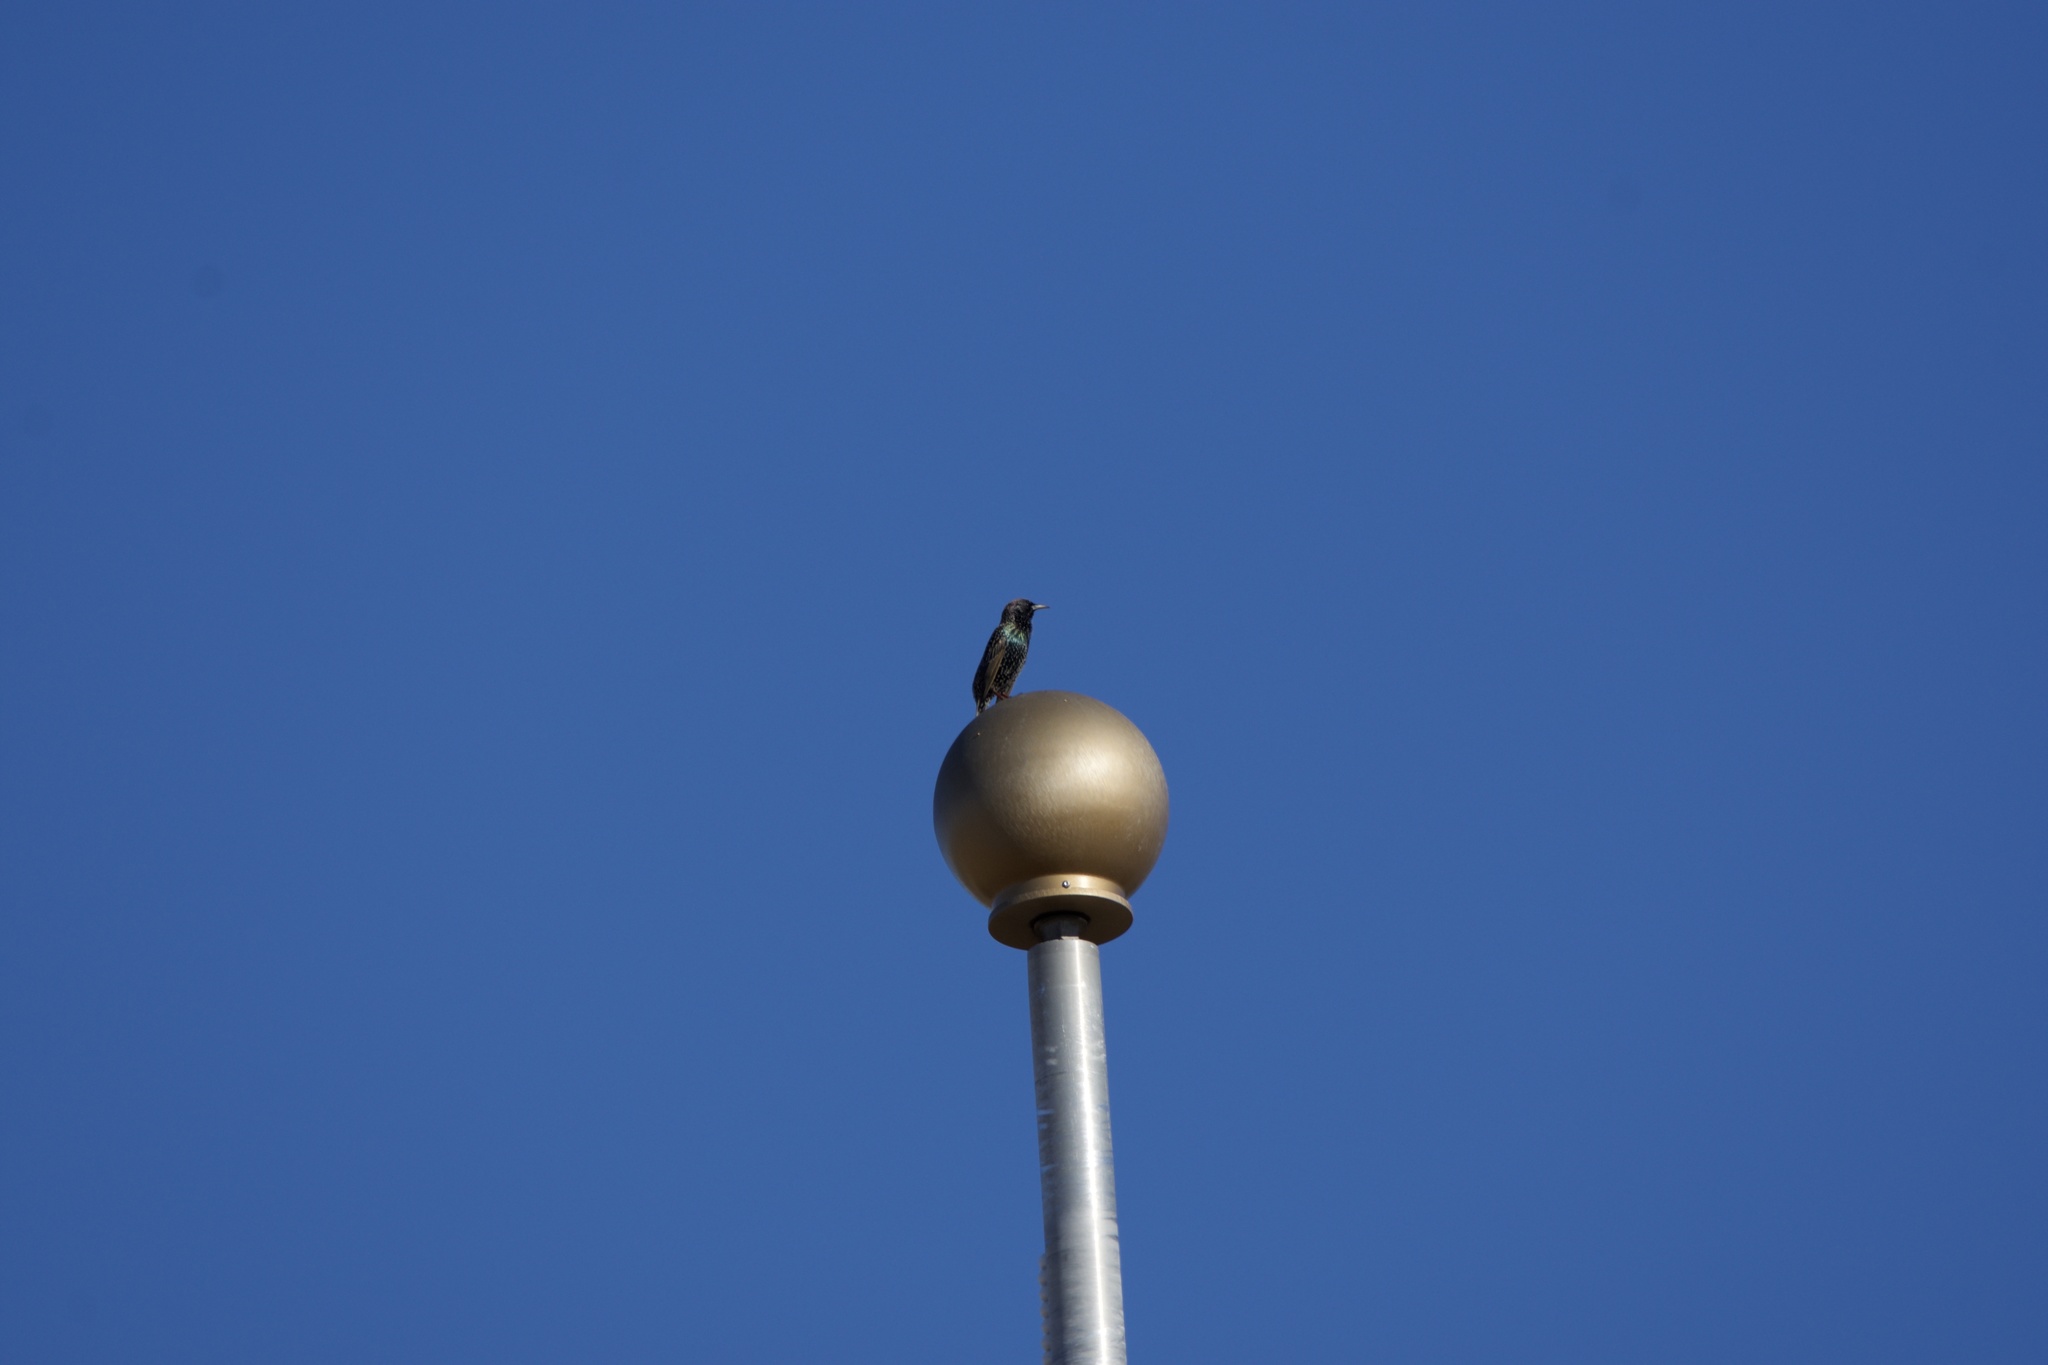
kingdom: Animalia
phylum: Chordata
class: Aves
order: Passeriformes
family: Sturnidae
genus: Sturnus
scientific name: Sturnus vulgaris
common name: Common starling
